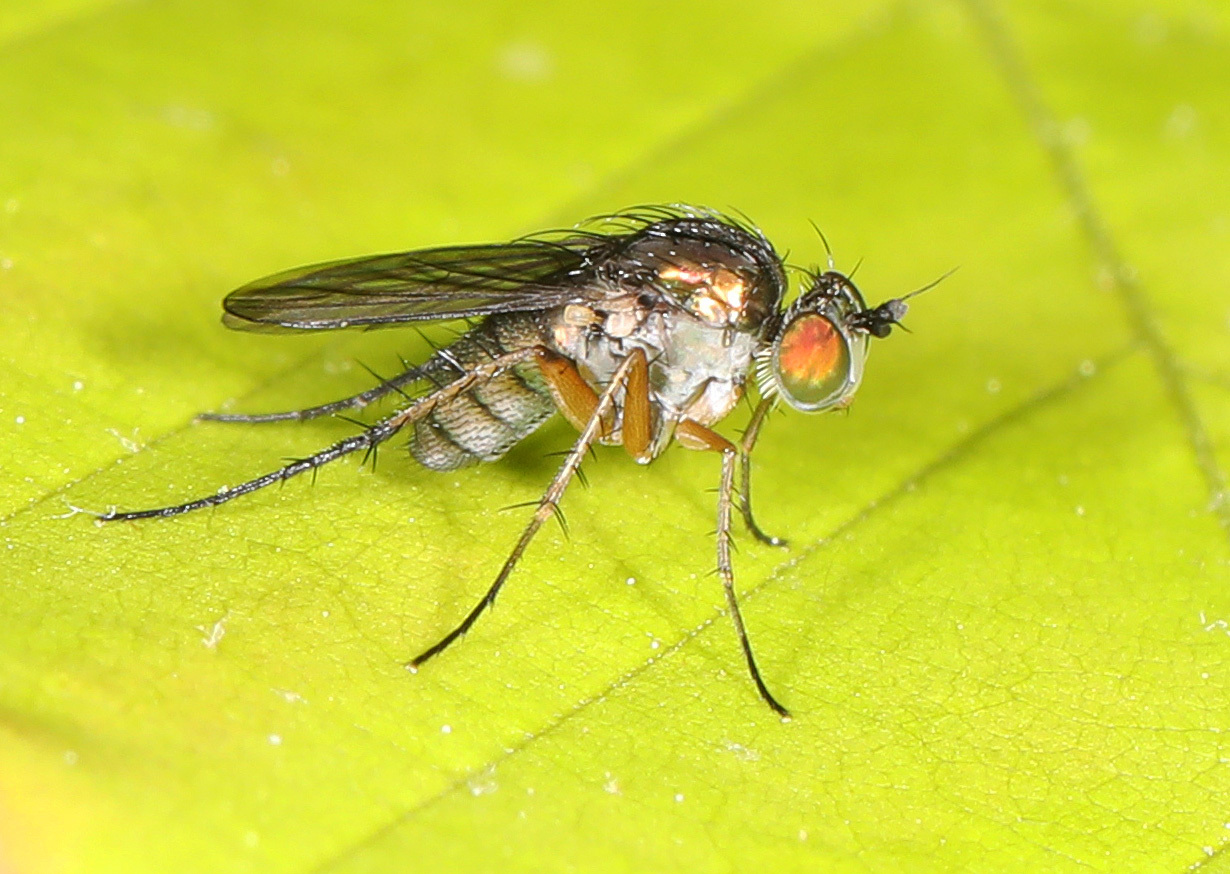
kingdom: Animalia
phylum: Arthropoda
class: Insecta
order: Diptera
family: Dolichopodidae
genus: Dolichopus
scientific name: Dolichopus comatus
